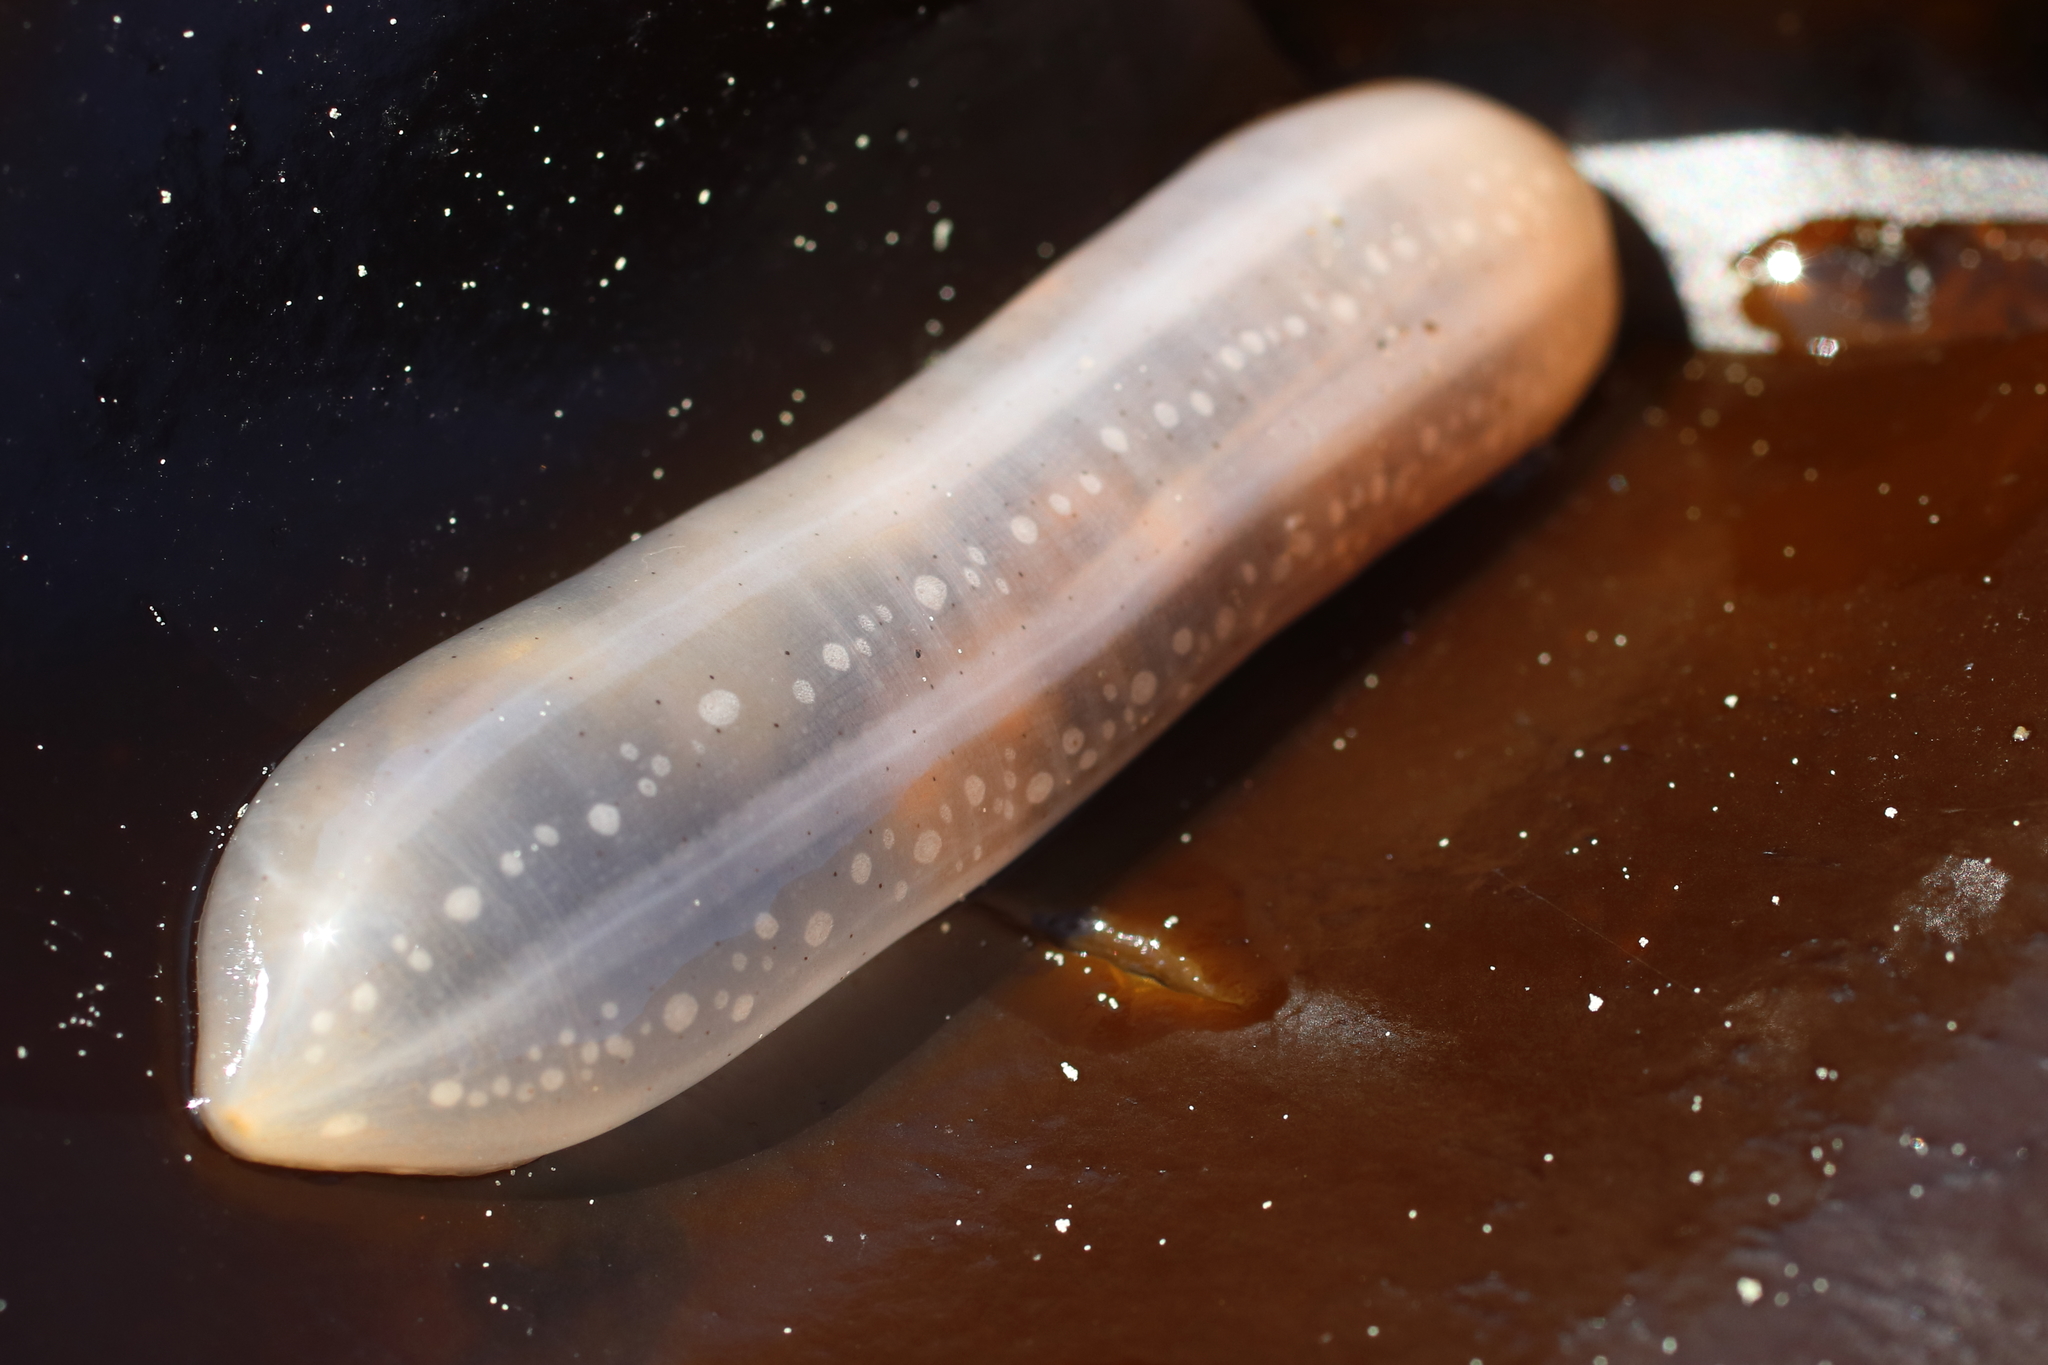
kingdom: Animalia
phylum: Echinodermata
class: Holothuroidea
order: Apodida
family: Chiridotidae
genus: Chiridota
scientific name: Chiridota discolor
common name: Jellybean footless sea cucumber
